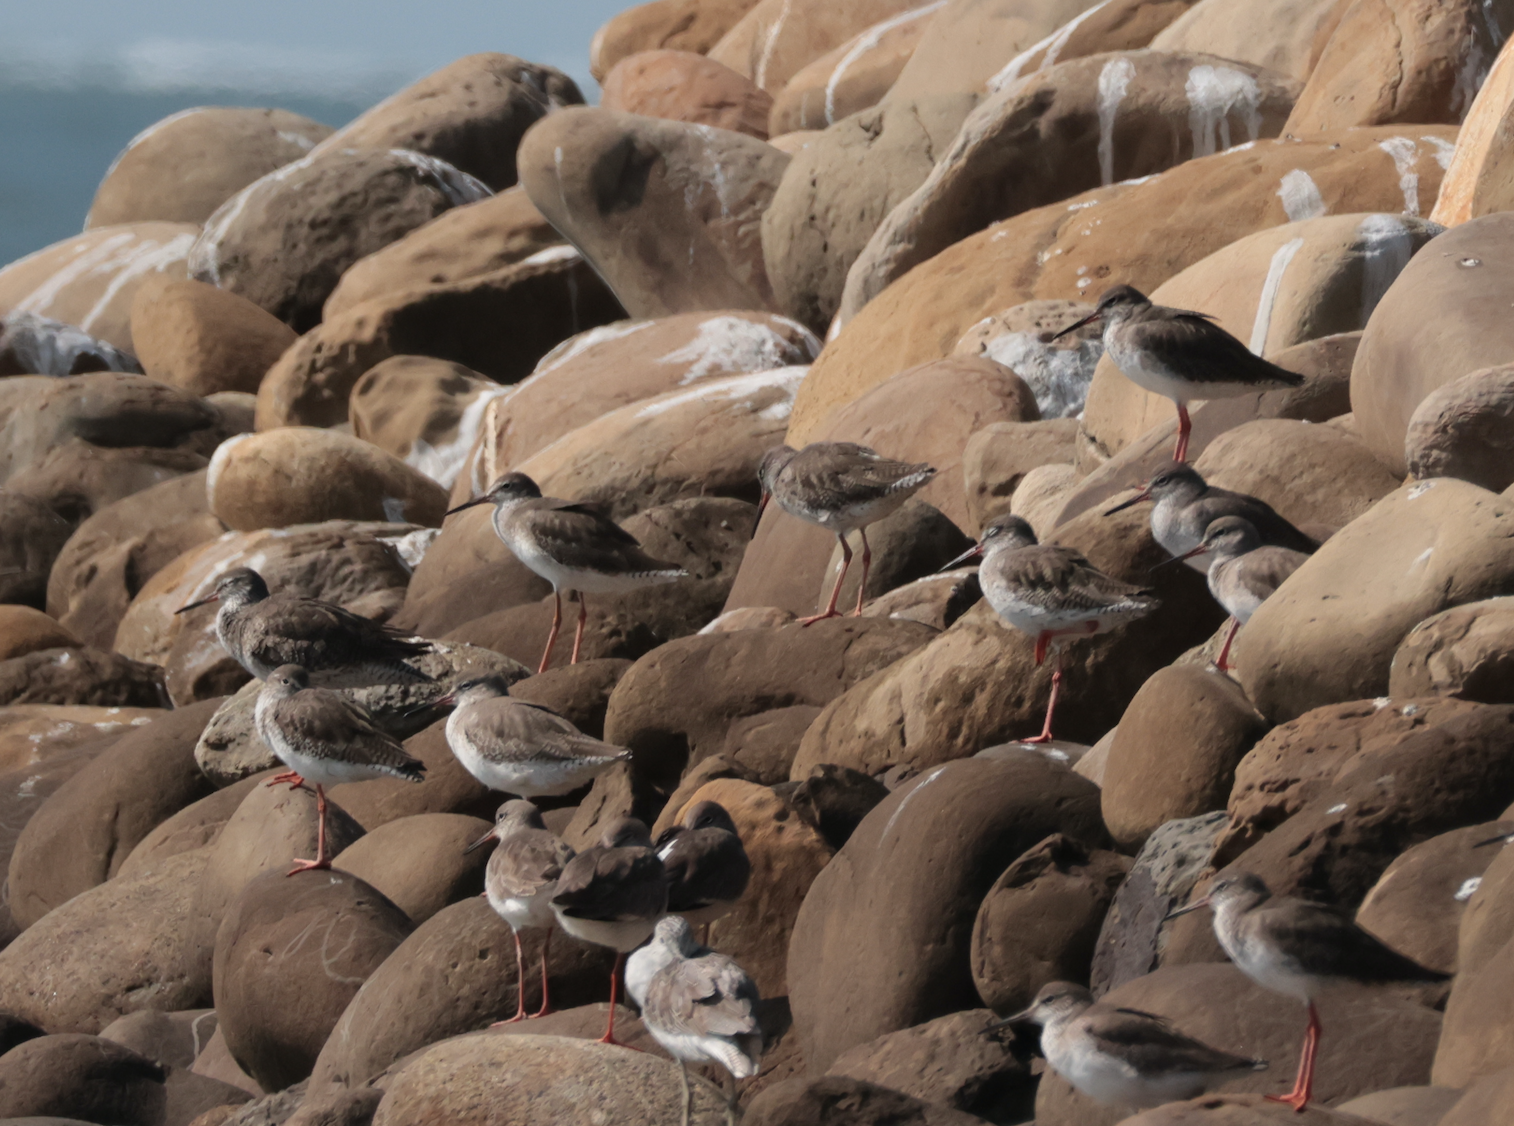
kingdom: Animalia
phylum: Chordata
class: Aves
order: Charadriiformes
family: Scolopacidae
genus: Tringa
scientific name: Tringa totanus
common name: Common redshank
